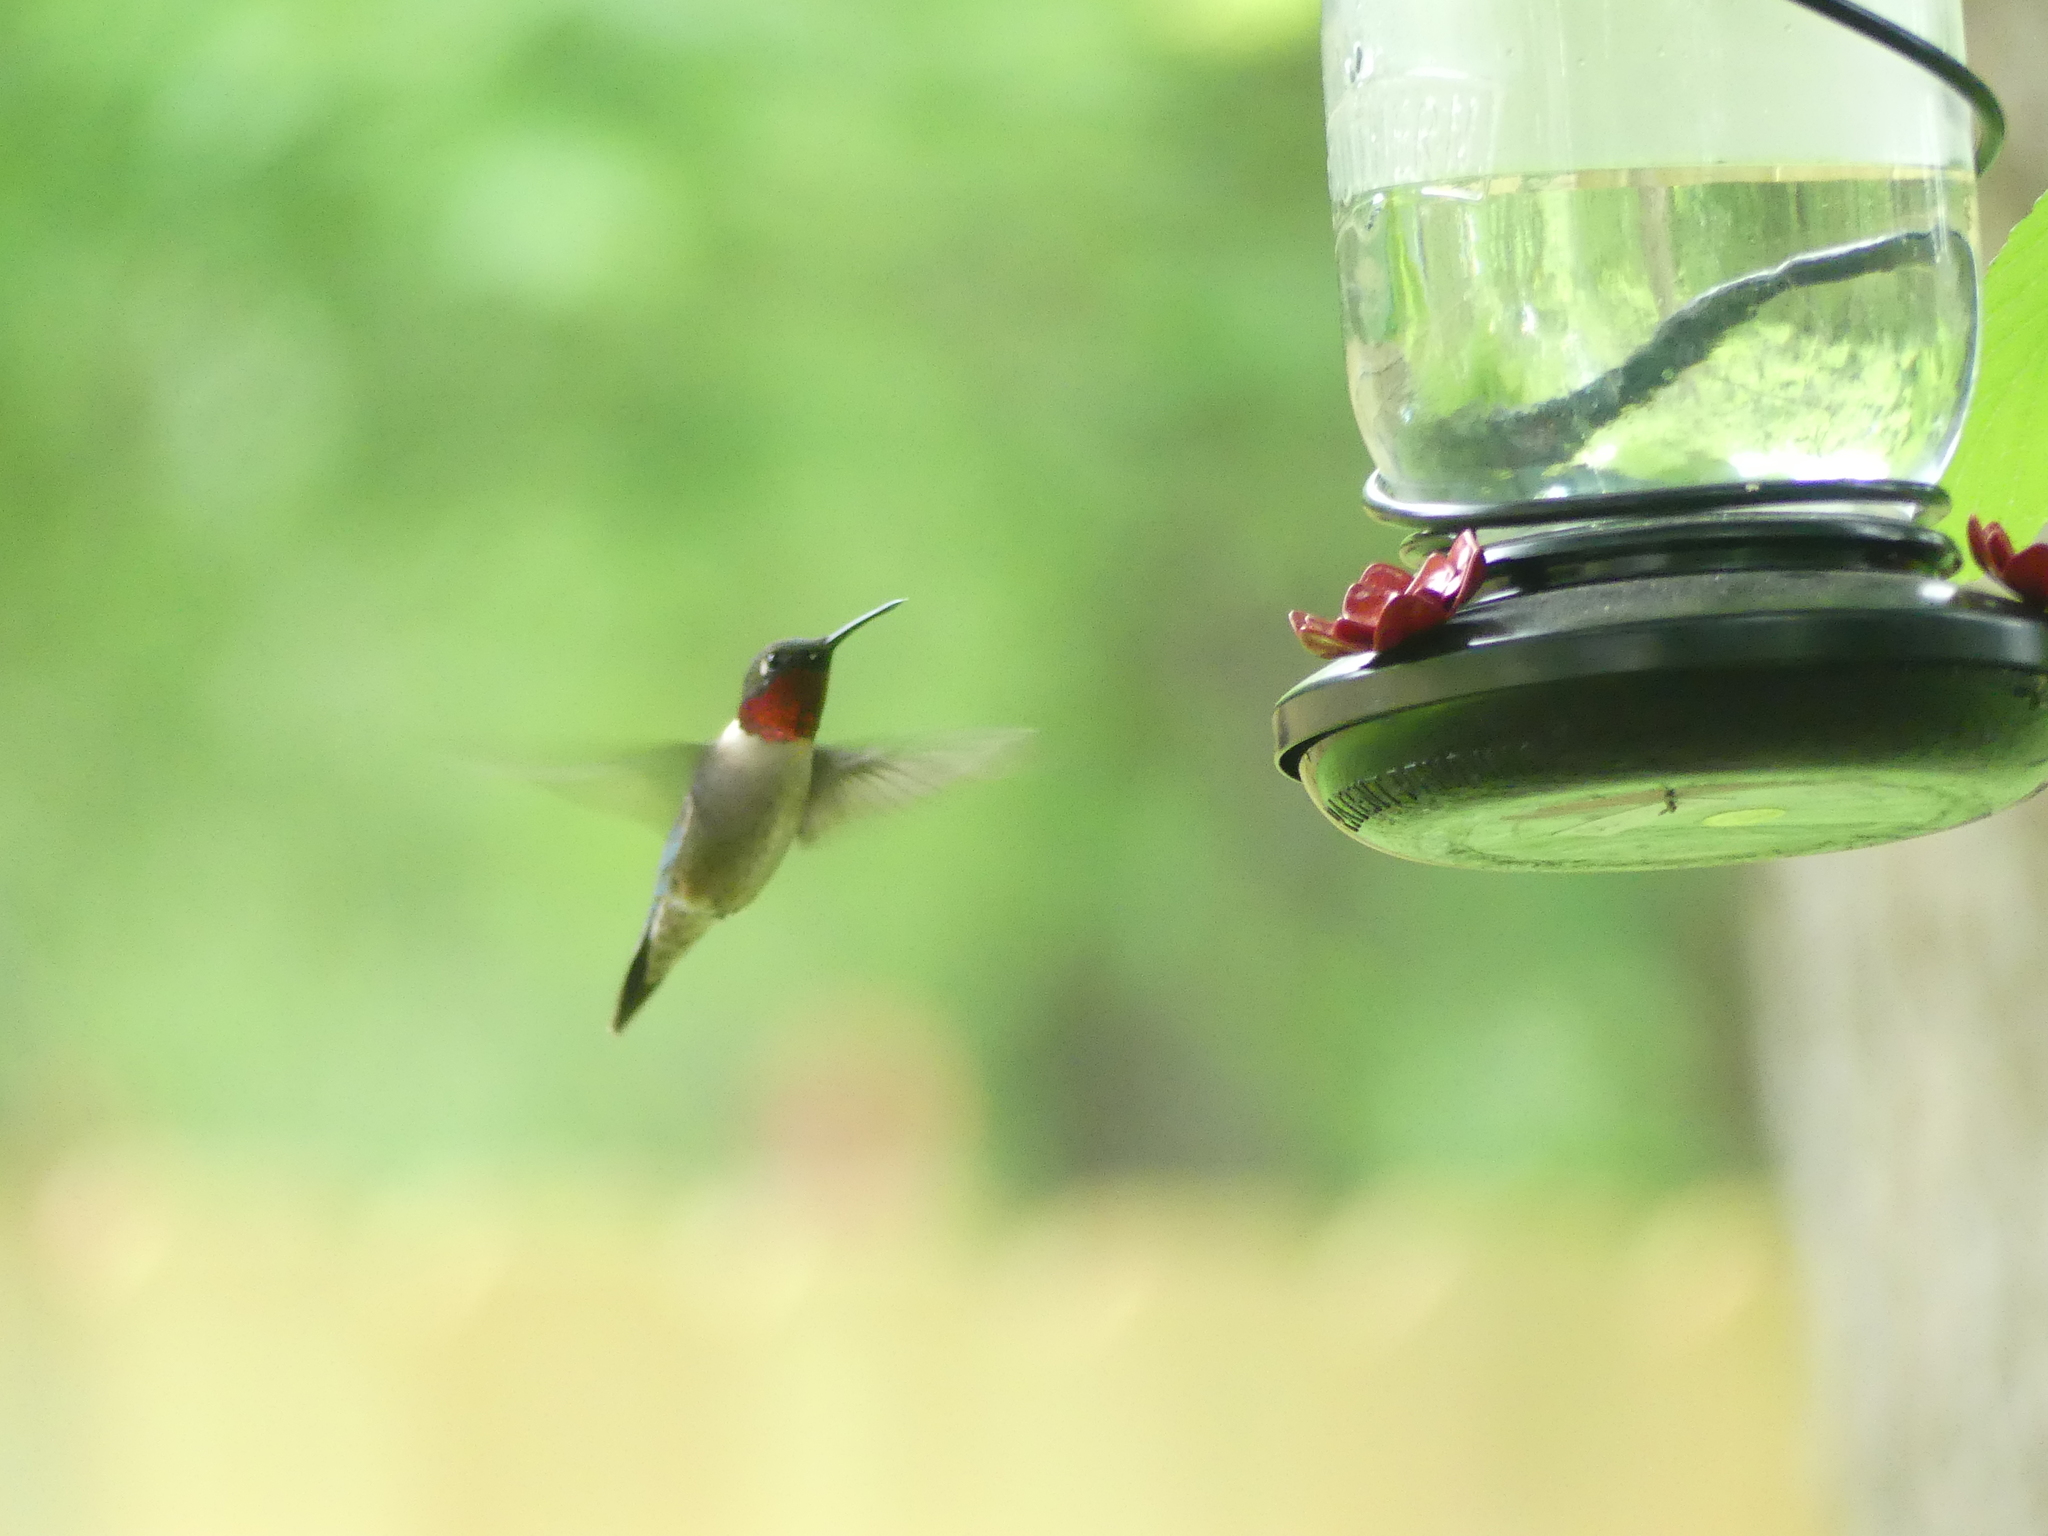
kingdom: Animalia
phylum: Chordata
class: Aves
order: Apodiformes
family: Trochilidae
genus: Archilochus
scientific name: Archilochus colubris
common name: Ruby-throated hummingbird
